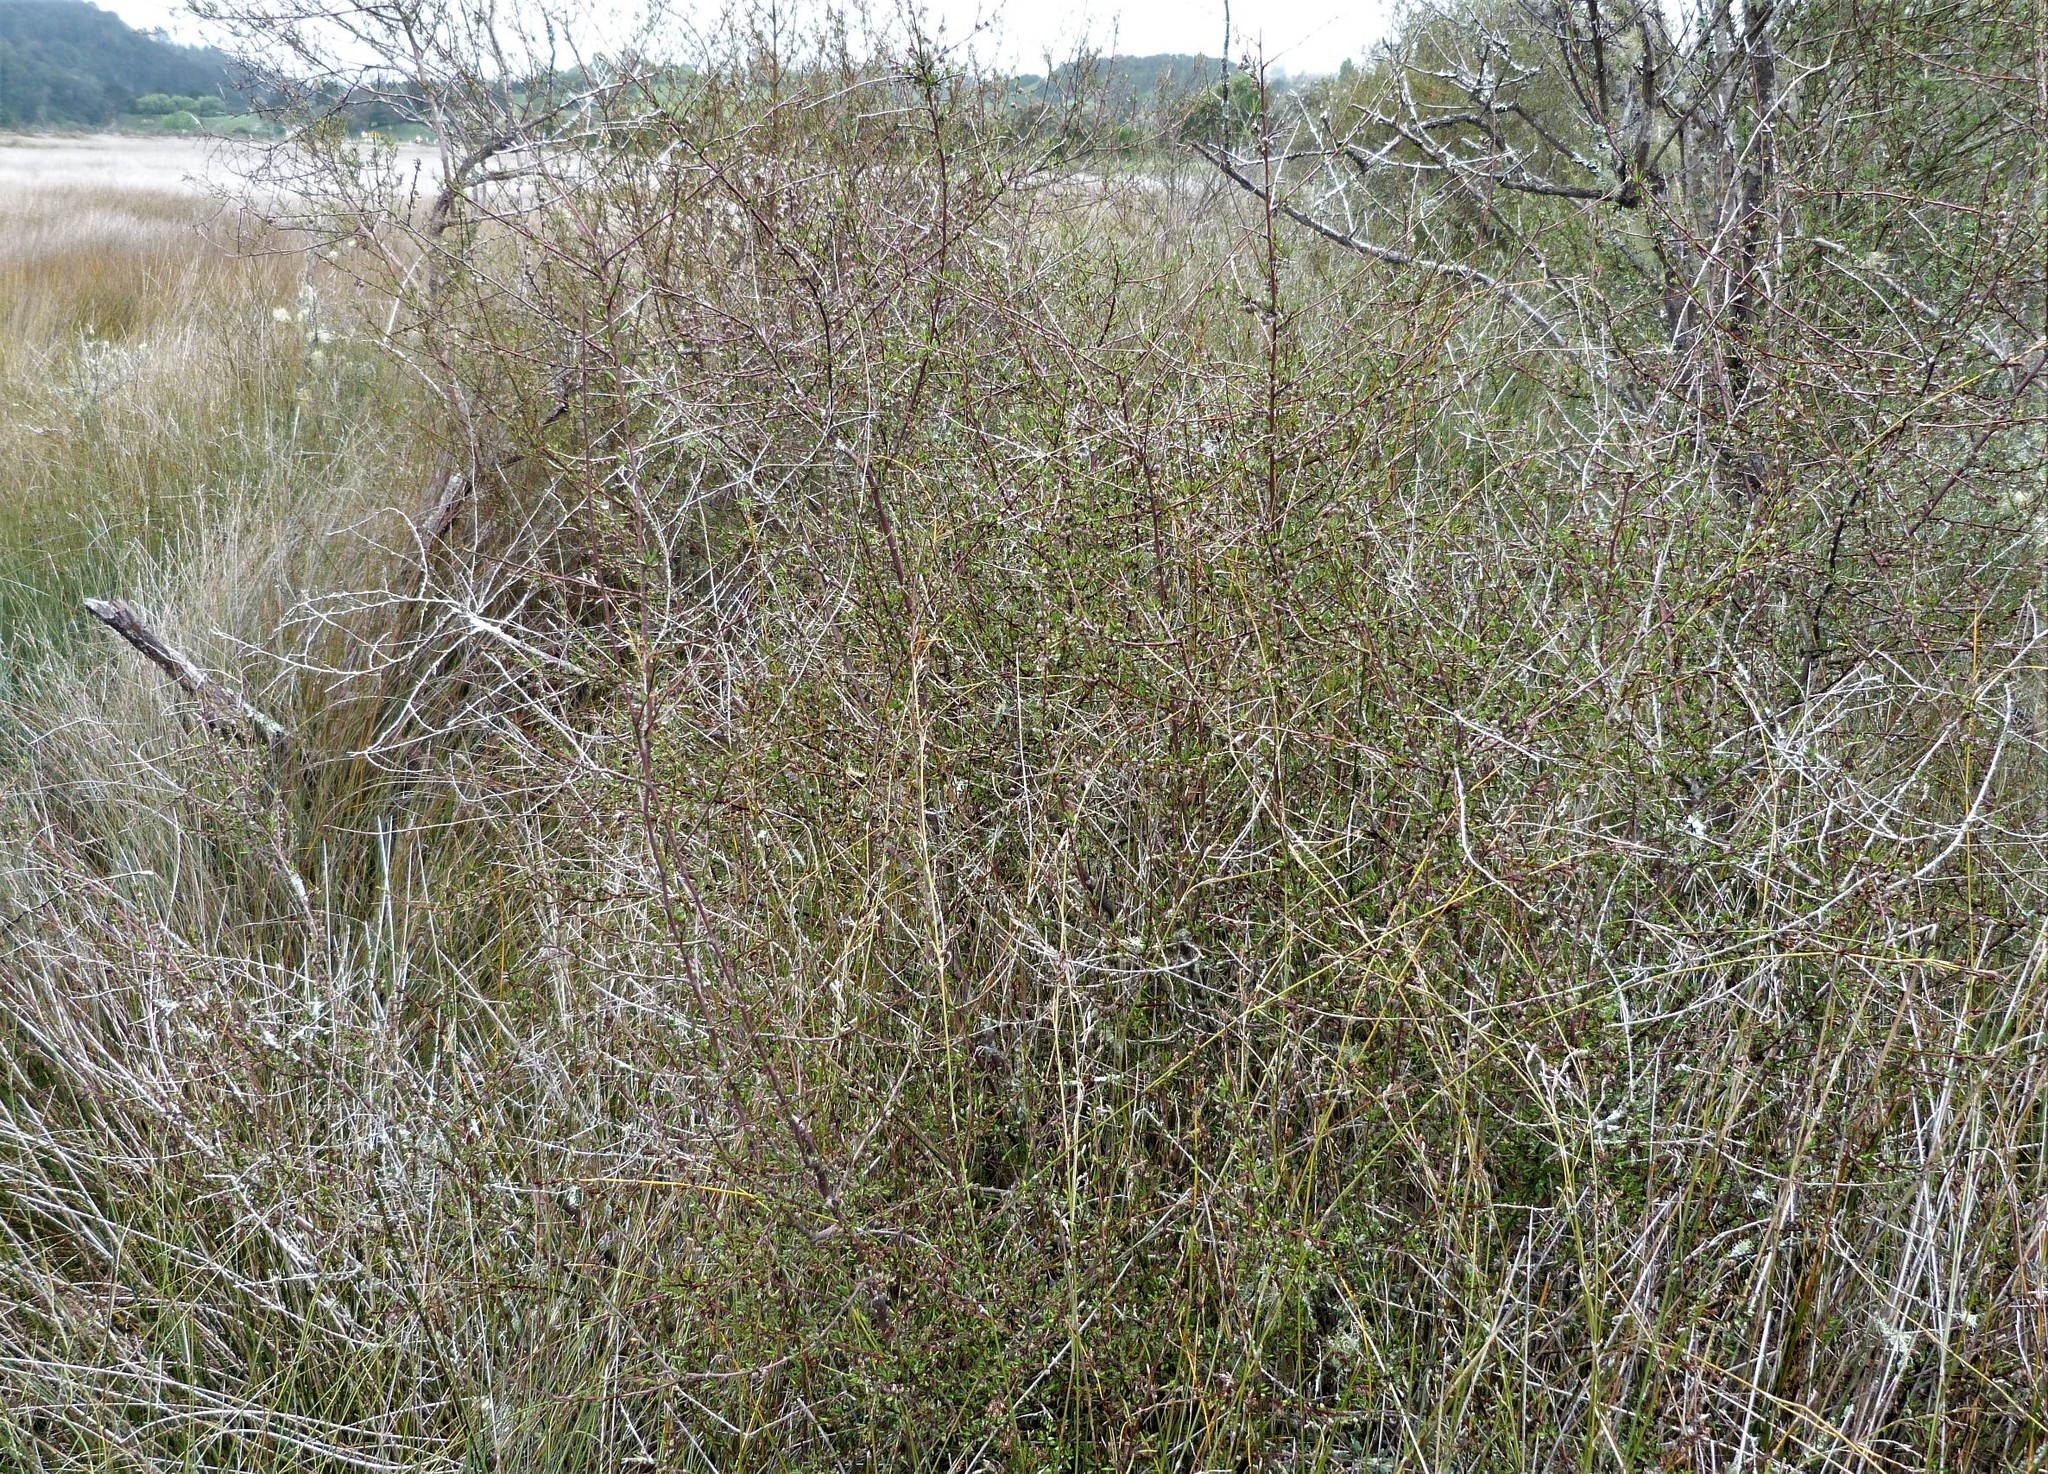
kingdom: Plantae
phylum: Tracheophyta
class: Magnoliopsida
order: Malvales
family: Malvaceae
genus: Plagianthus
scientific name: Plagianthus divaricatus
